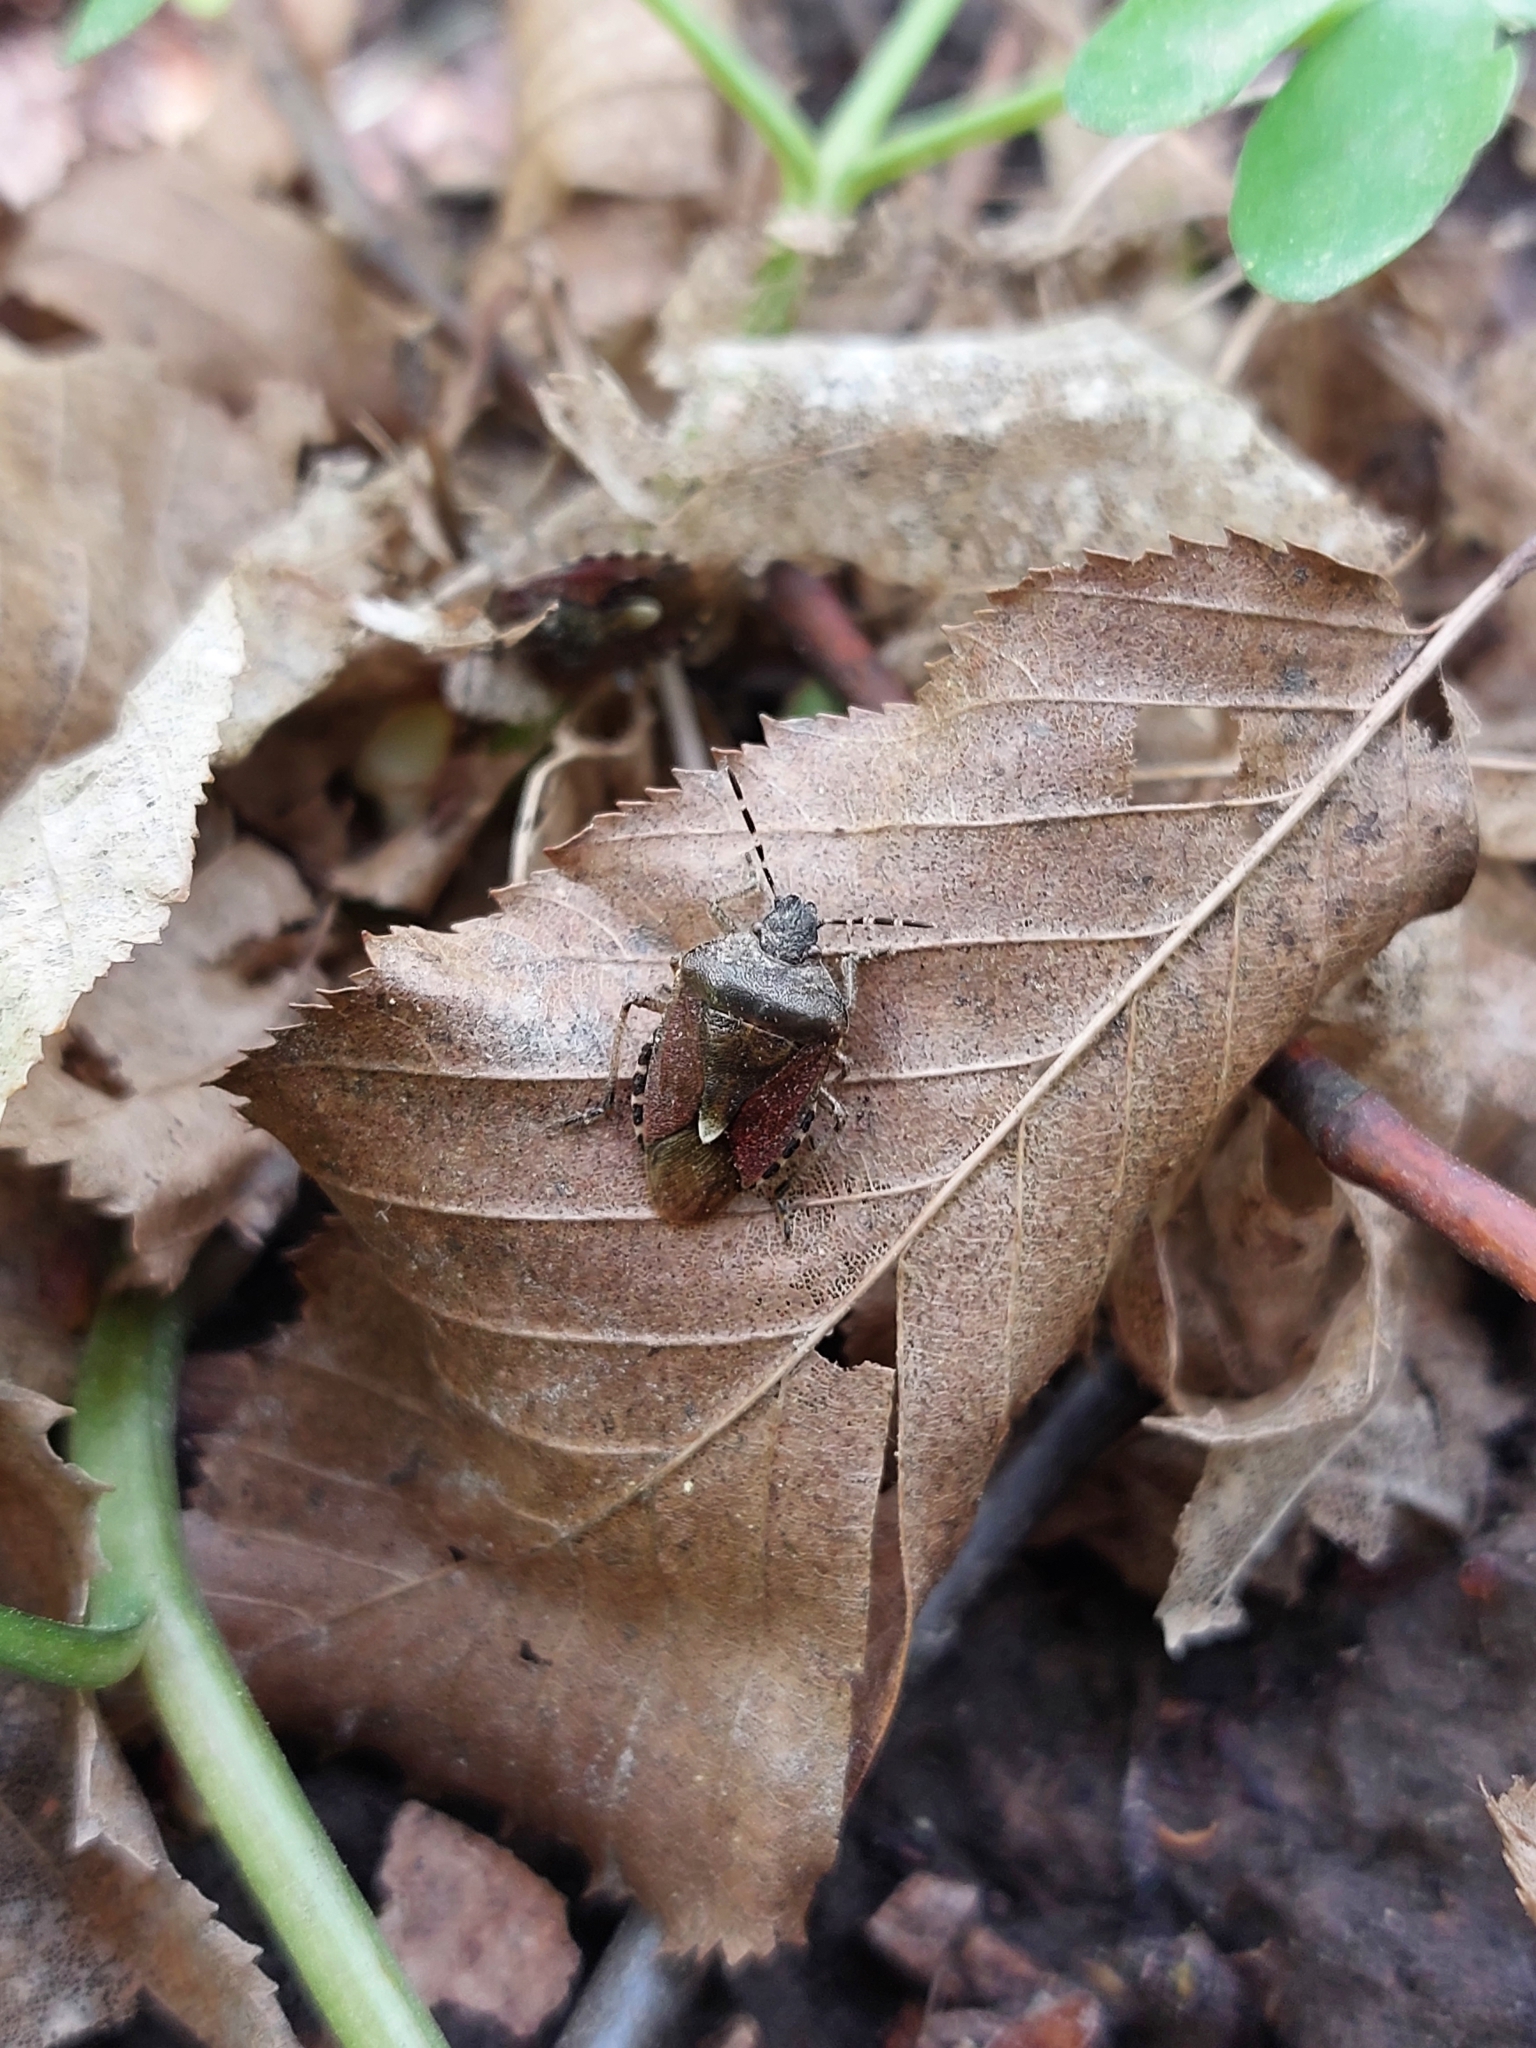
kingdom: Animalia
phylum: Arthropoda
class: Insecta
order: Hemiptera
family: Pentatomidae
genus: Dolycoris
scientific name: Dolycoris baccarum
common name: Sloe bug
